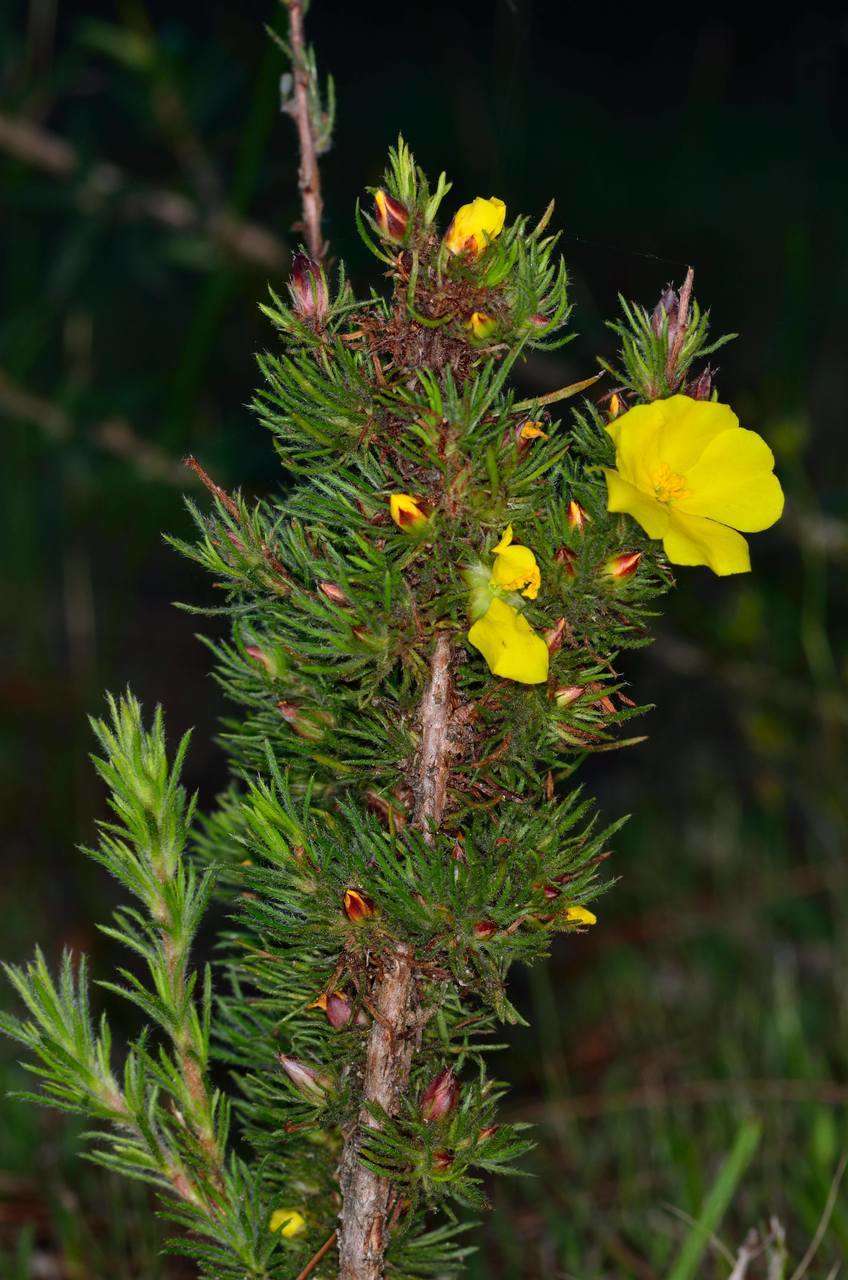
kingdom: Plantae
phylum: Tracheophyta
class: Magnoliopsida
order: Dilleniales
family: Dilleniaceae
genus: Hibbertia
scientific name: Hibbertia prostrata
